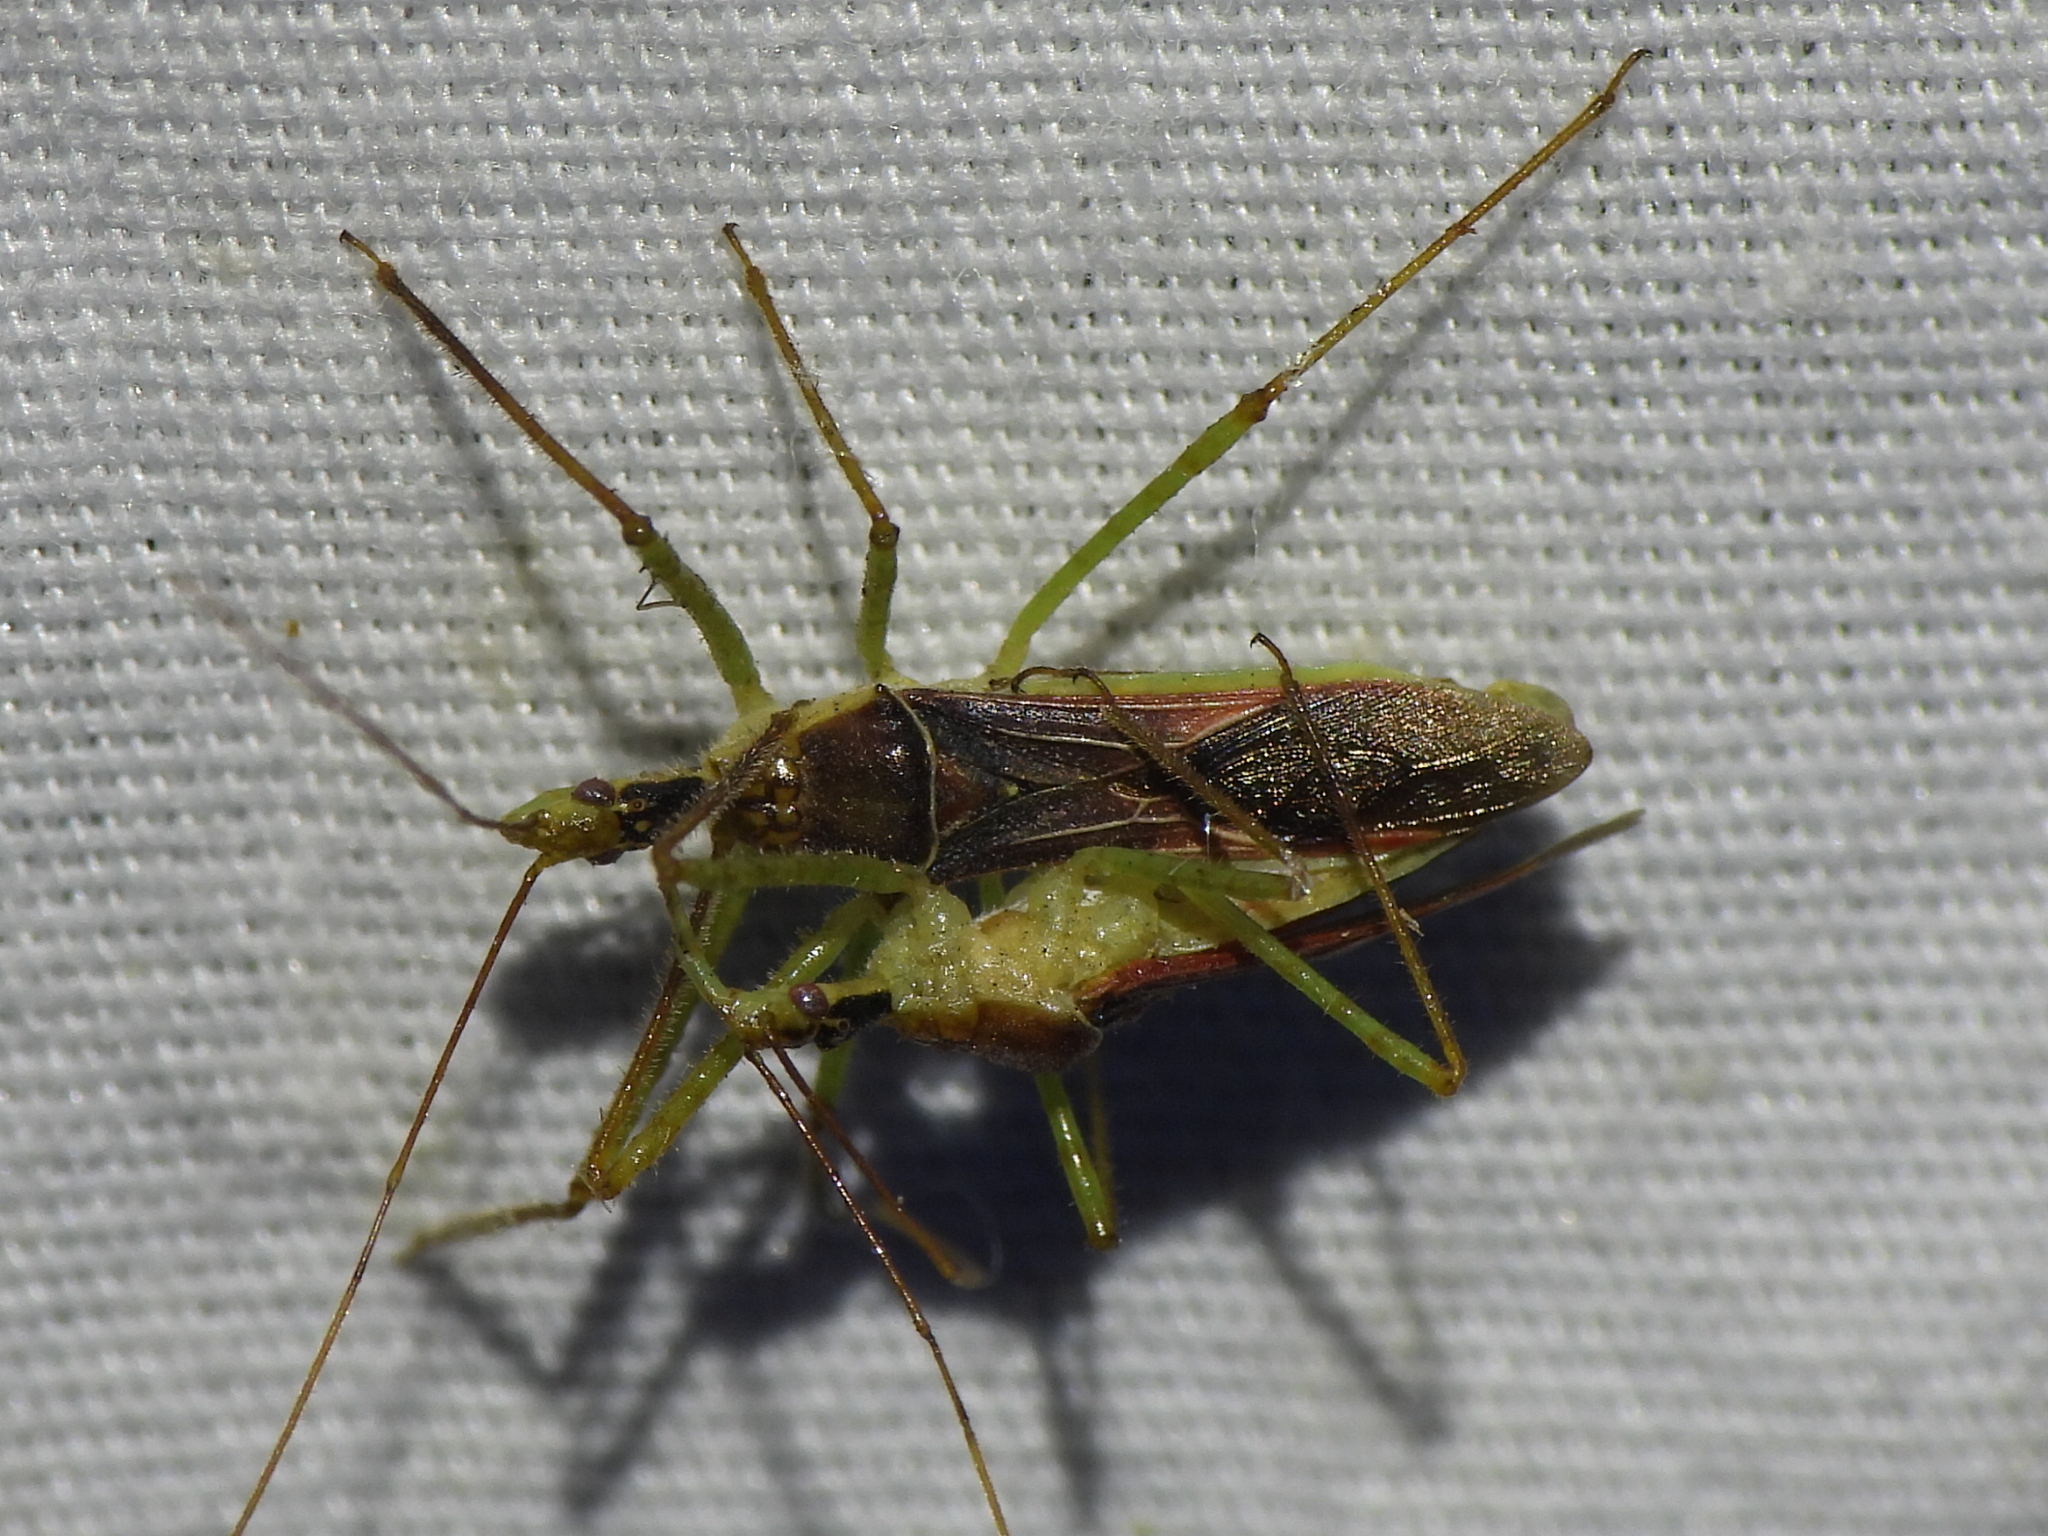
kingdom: Animalia
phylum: Arthropoda
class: Insecta
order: Hemiptera
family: Reduviidae
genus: Zelus
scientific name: Zelus renardii
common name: Assassin bug
